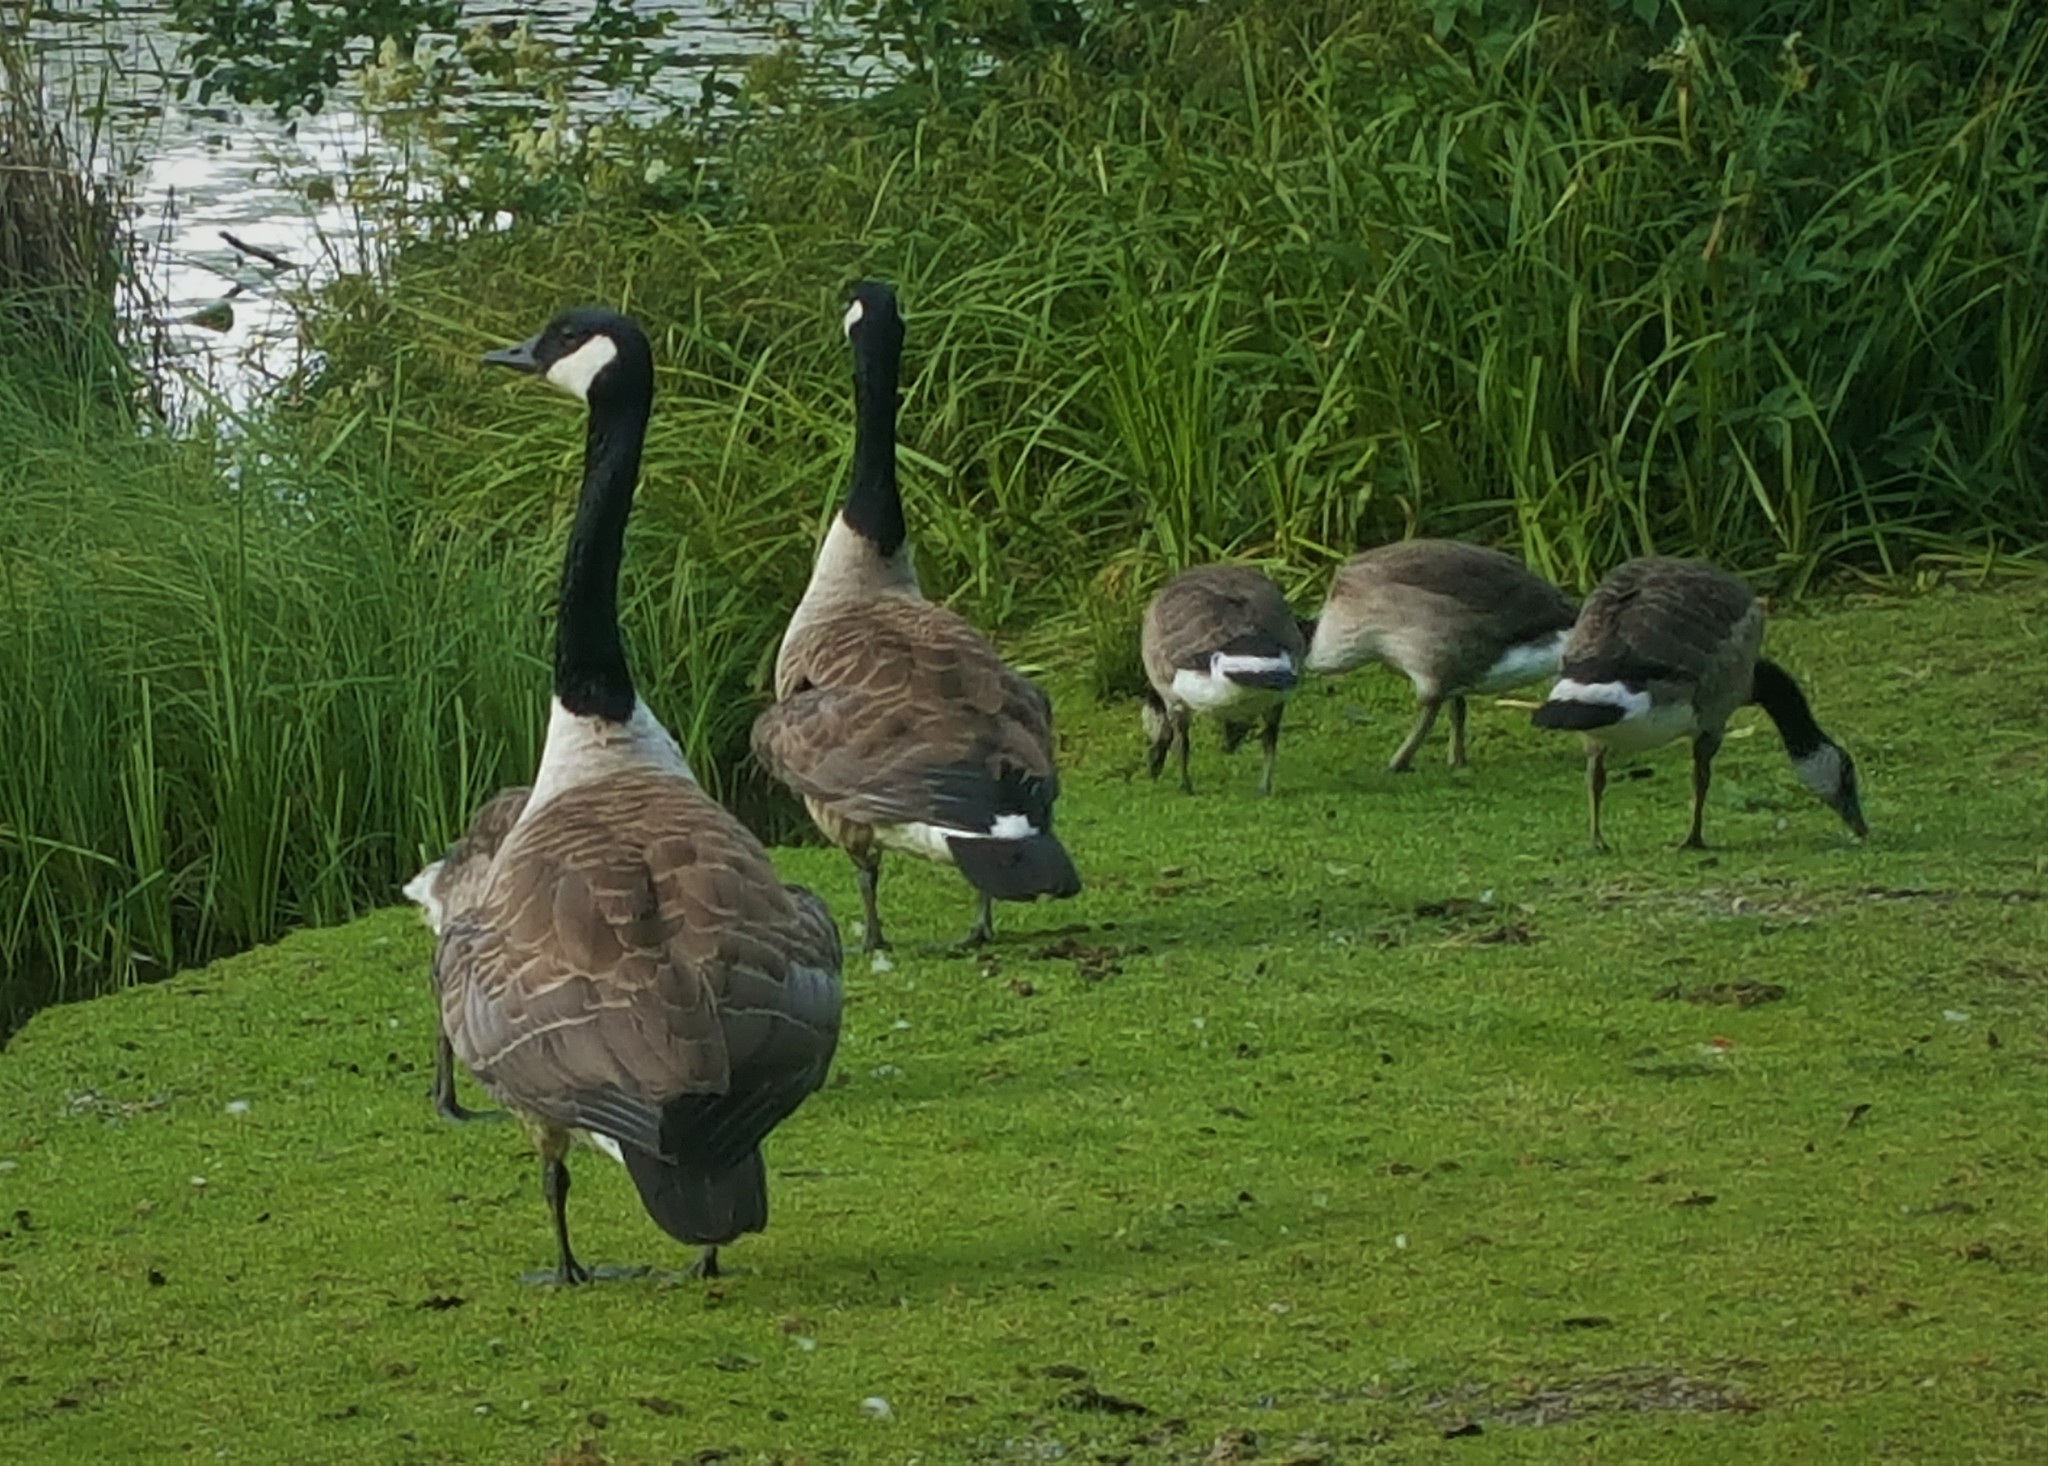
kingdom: Animalia
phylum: Chordata
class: Aves
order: Anseriformes
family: Anatidae
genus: Branta
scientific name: Branta canadensis
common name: Canada goose
